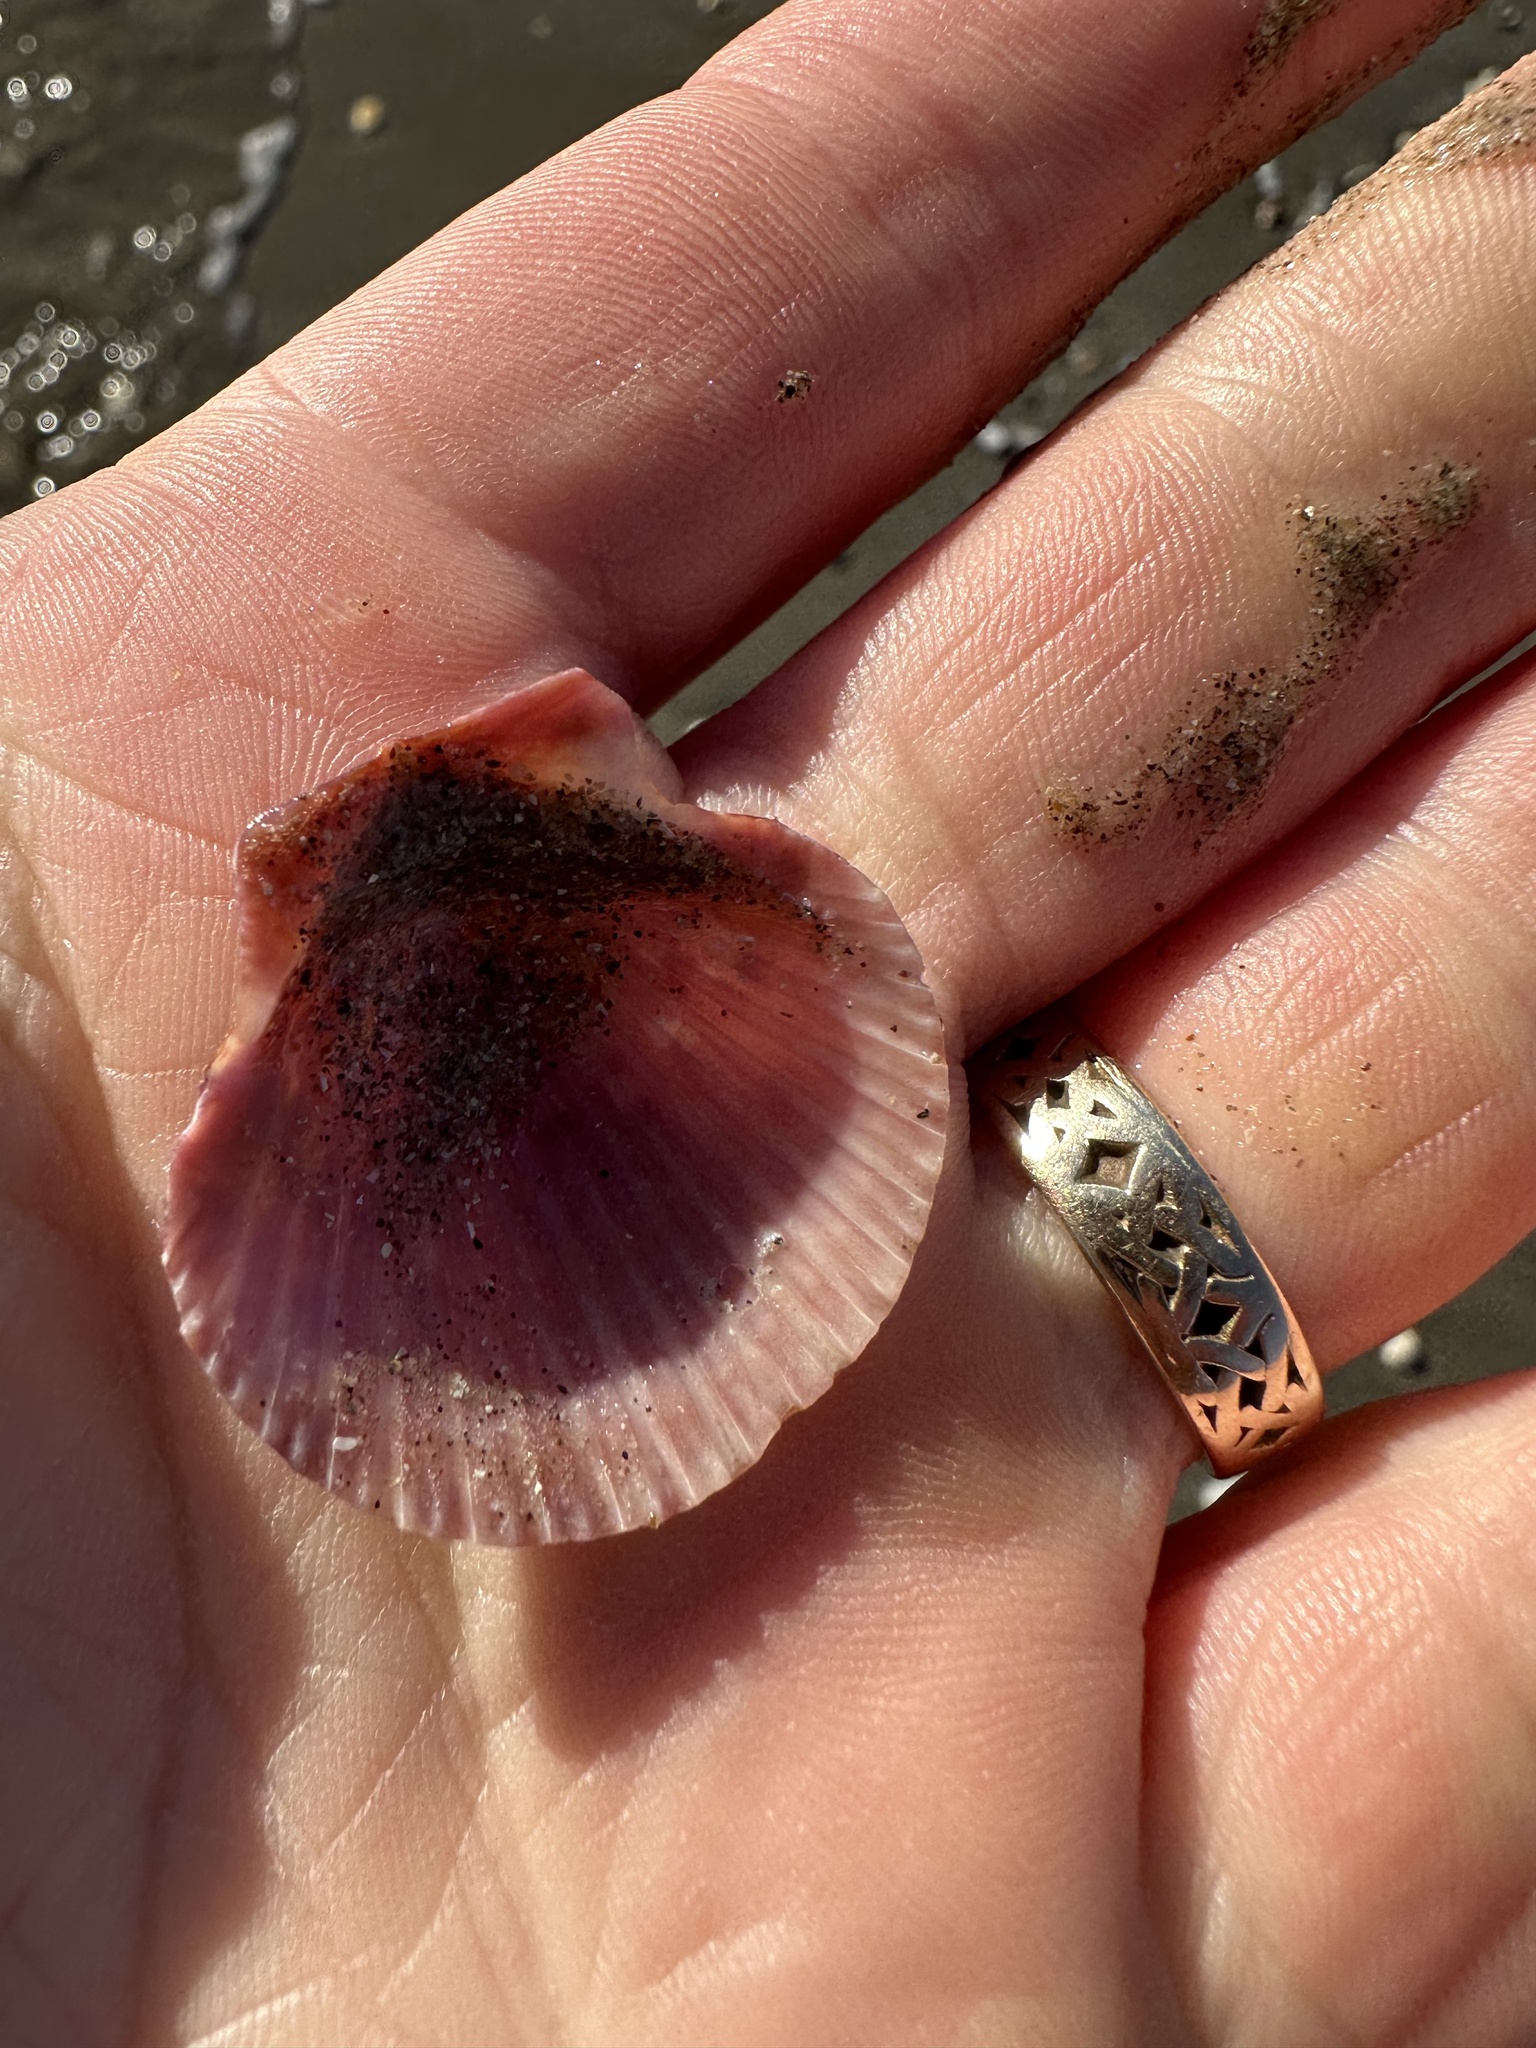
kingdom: Animalia
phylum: Mollusca
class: Bivalvia
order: Pectinida
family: Pectinidae
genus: Aequipecten
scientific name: Aequipecten opercularis
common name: Queen scallop
